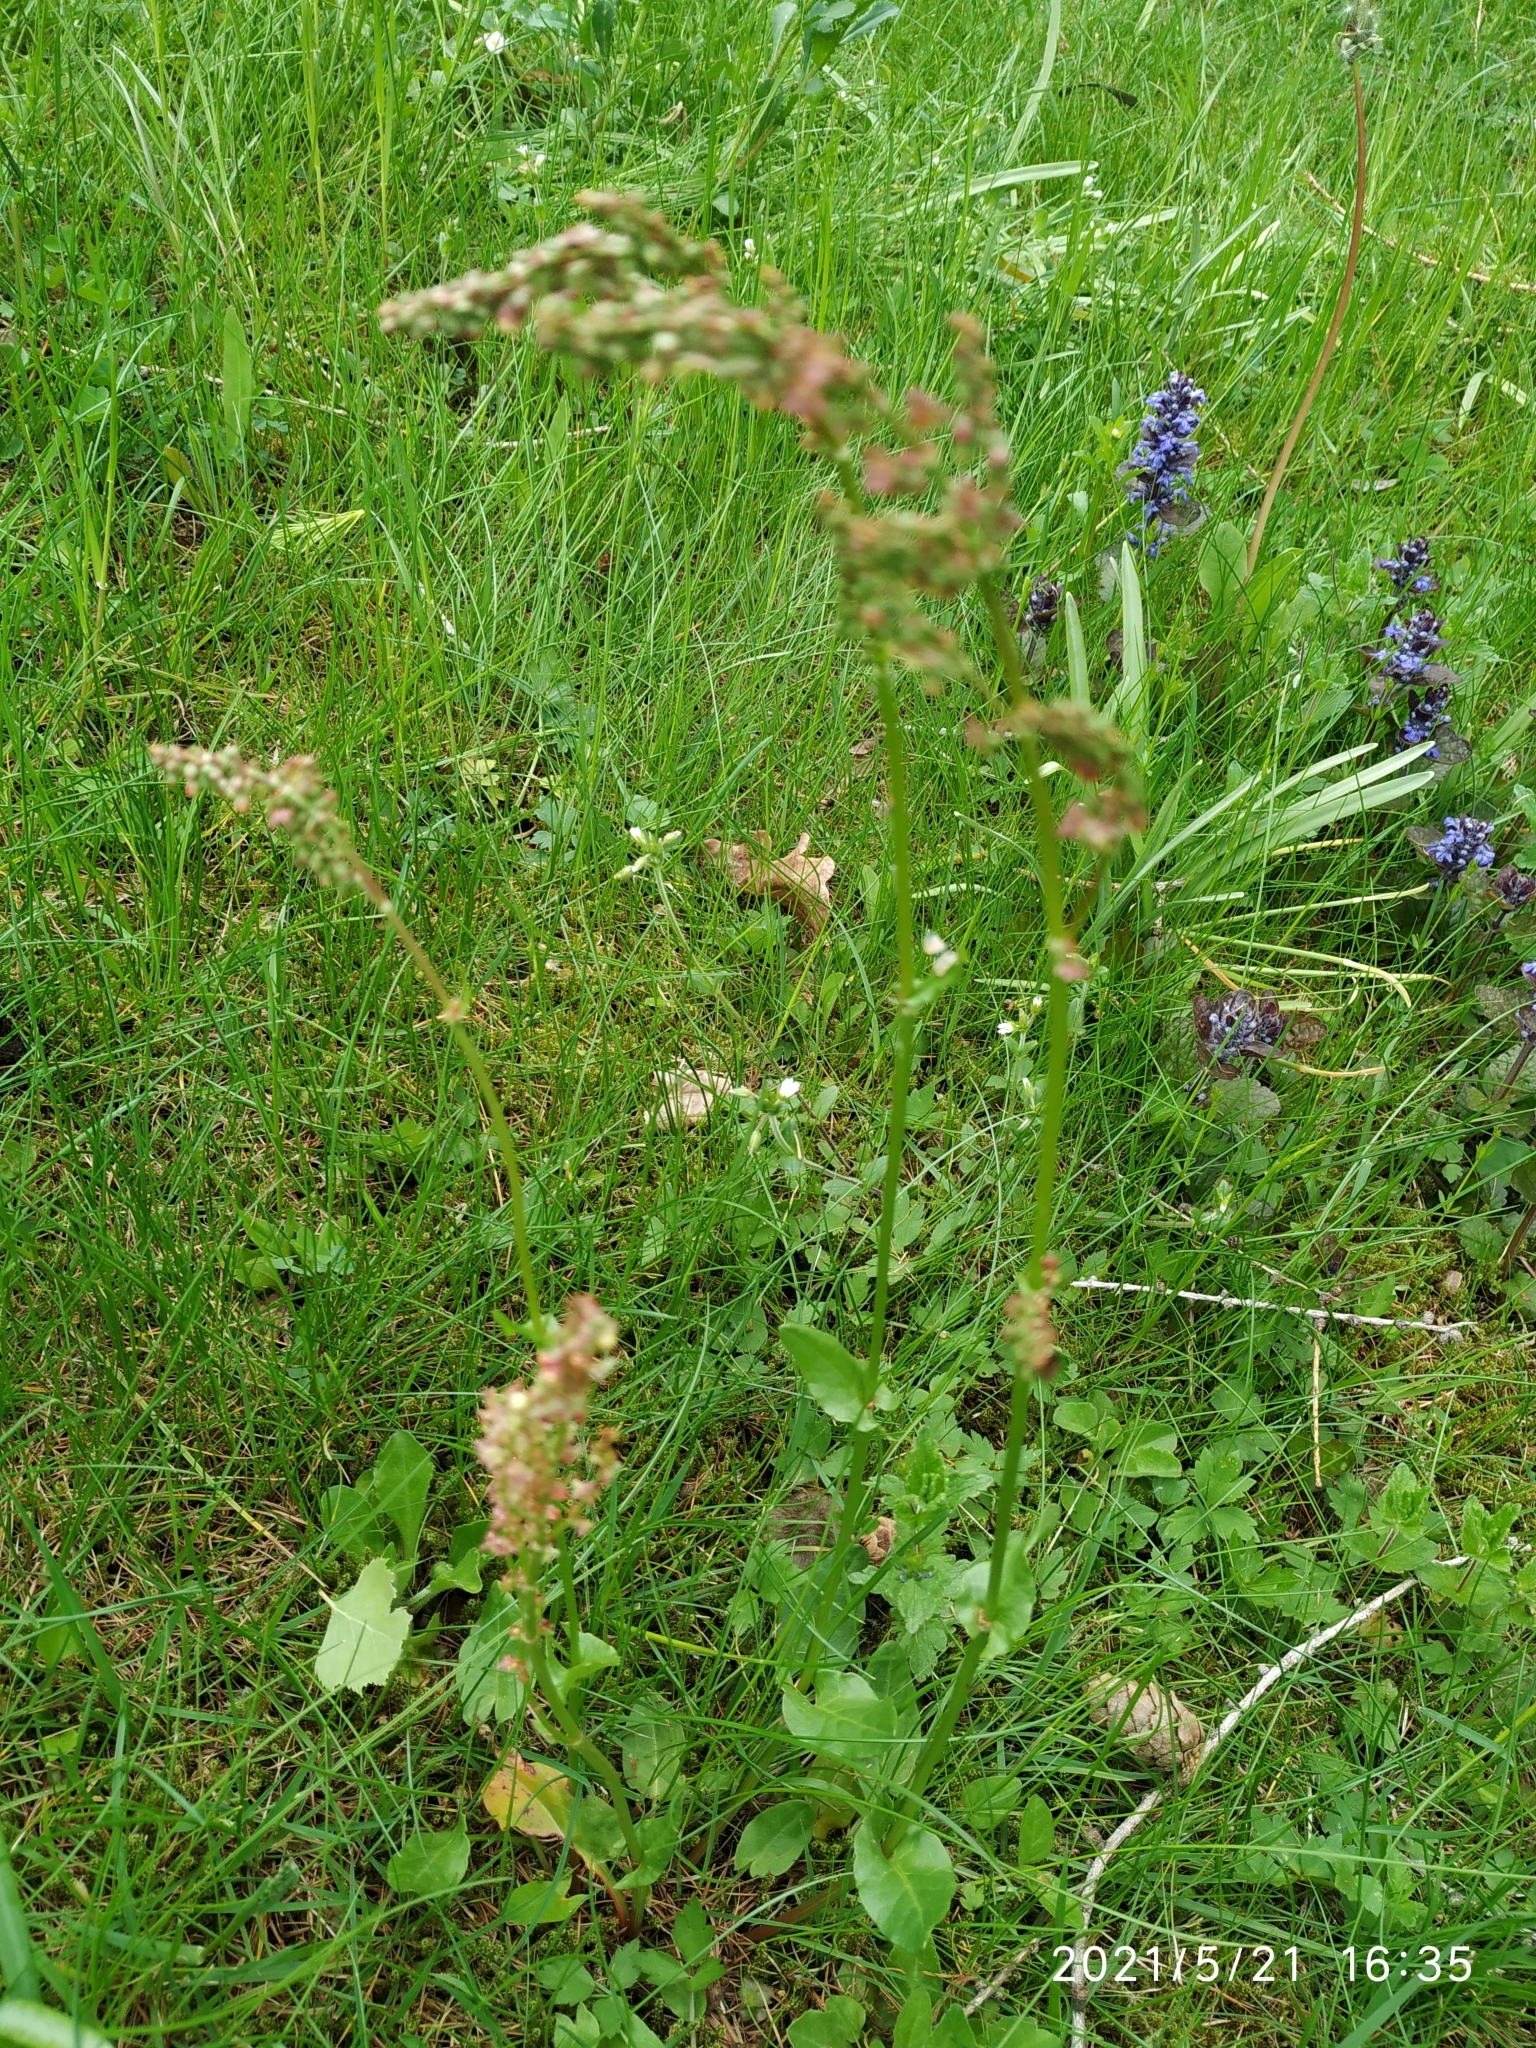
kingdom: Plantae
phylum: Tracheophyta
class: Magnoliopsida
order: Caryophyllales
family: Polygonaceae
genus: Rumex
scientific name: Rumex acetosa
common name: Garden sorrel
